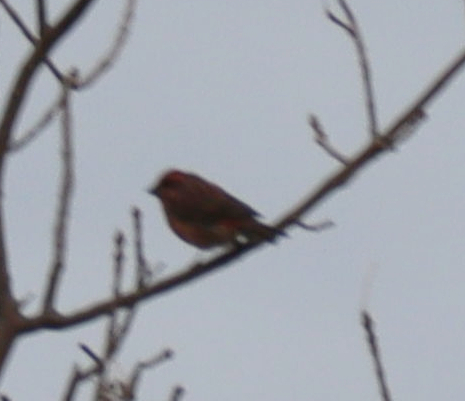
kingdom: Animalia
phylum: Chordata
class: Aves
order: Passeriformes
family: Fringillidae
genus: Haemorhous
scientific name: Haemorhous purpureus
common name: Purple finch
